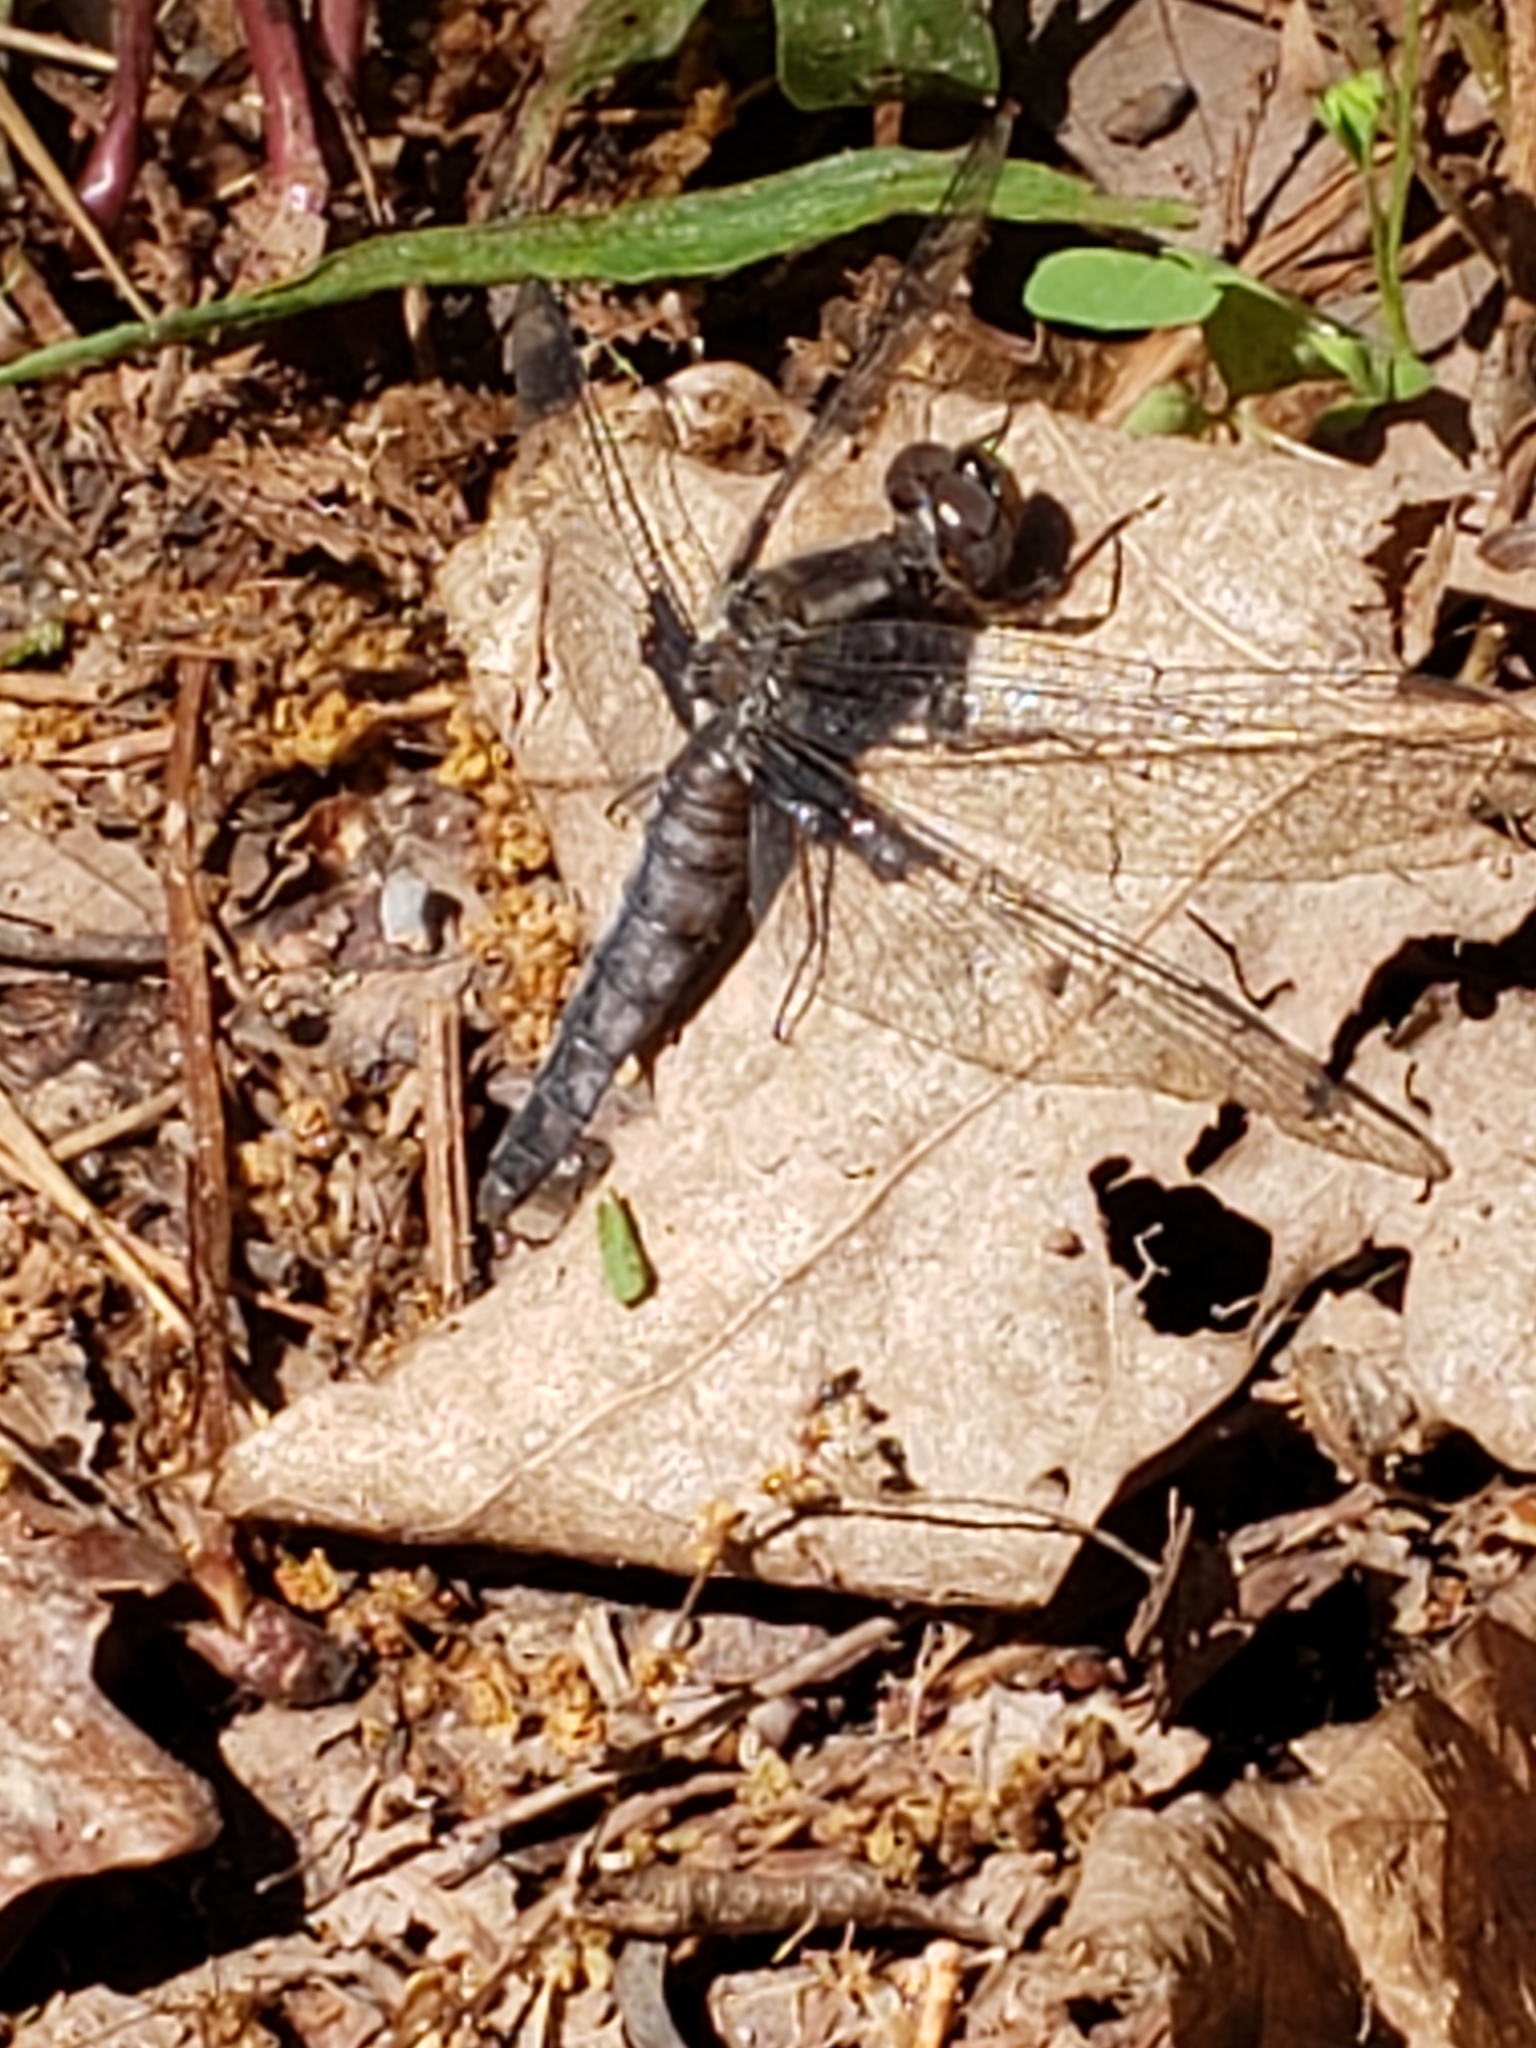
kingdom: Animalia
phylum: Arthropoda
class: Insecta
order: Odonata
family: Libellulidae
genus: Ladona
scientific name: Ladona deplanata
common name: Blue corporal
